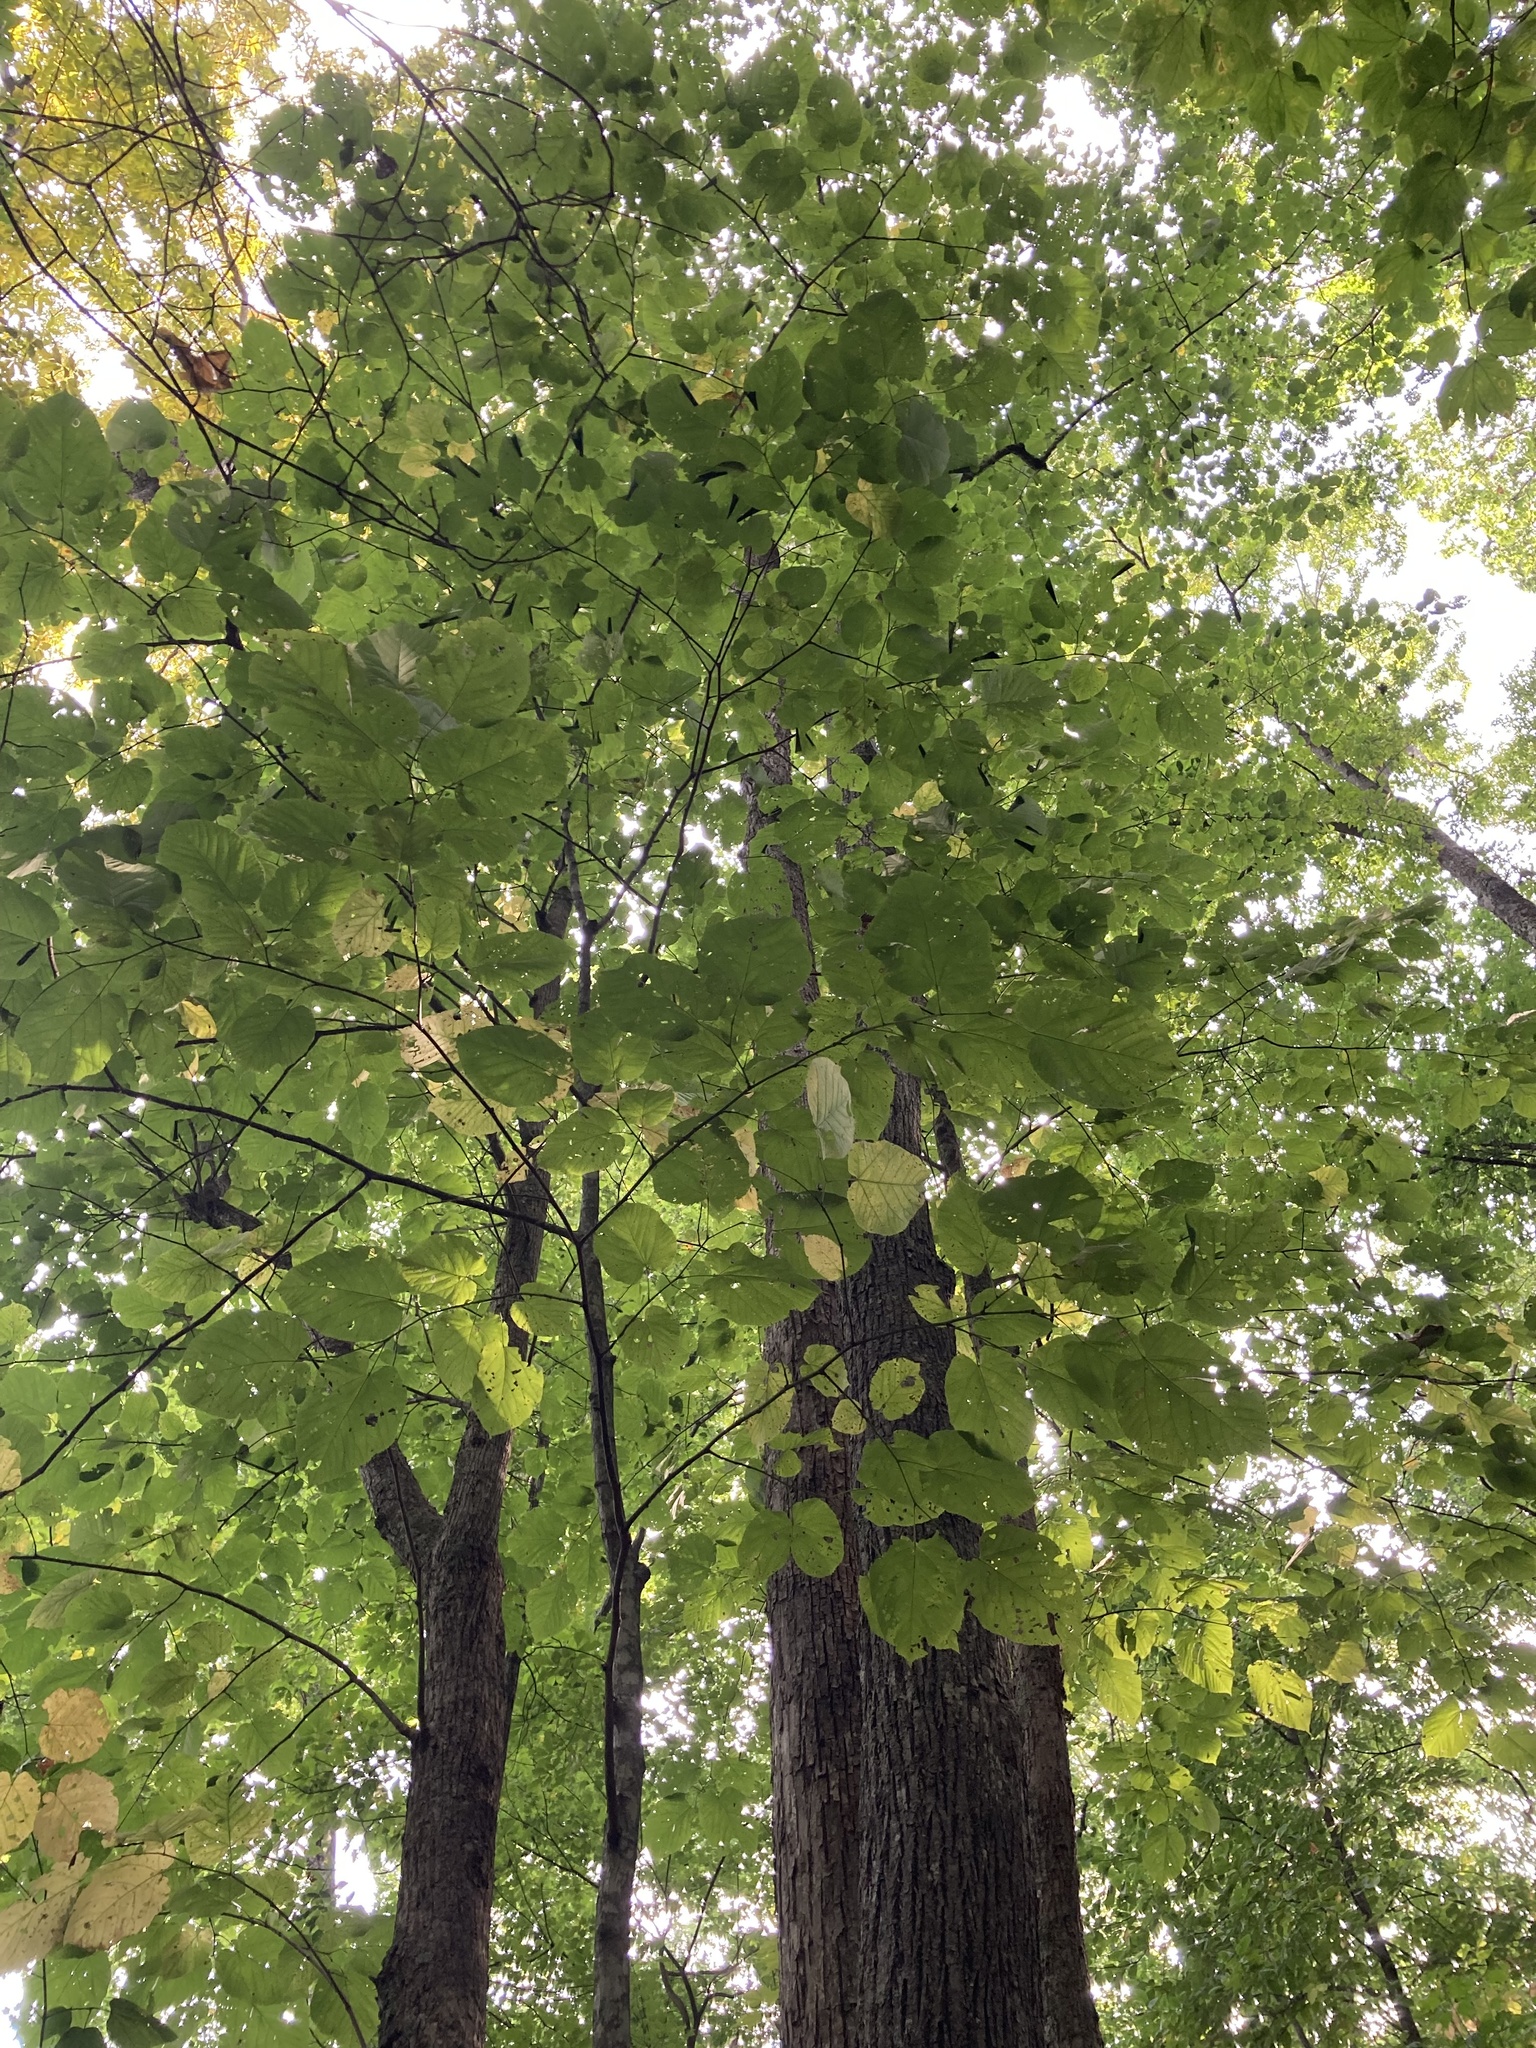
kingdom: Plantae
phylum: Tracheophyta
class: Magnoliopsida
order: Malvales
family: Malvaceae
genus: Tilia
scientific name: Tilia americana
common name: Basswood
